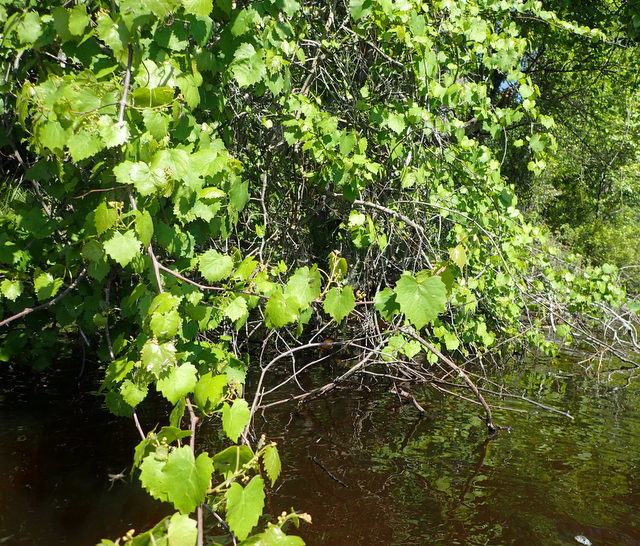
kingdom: Plantae
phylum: Tracheophyta
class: Magnoliopsida
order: Vitales
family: Vitaceae
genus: Vitis
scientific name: Vitis rotundifolia
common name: Muscadine grape
